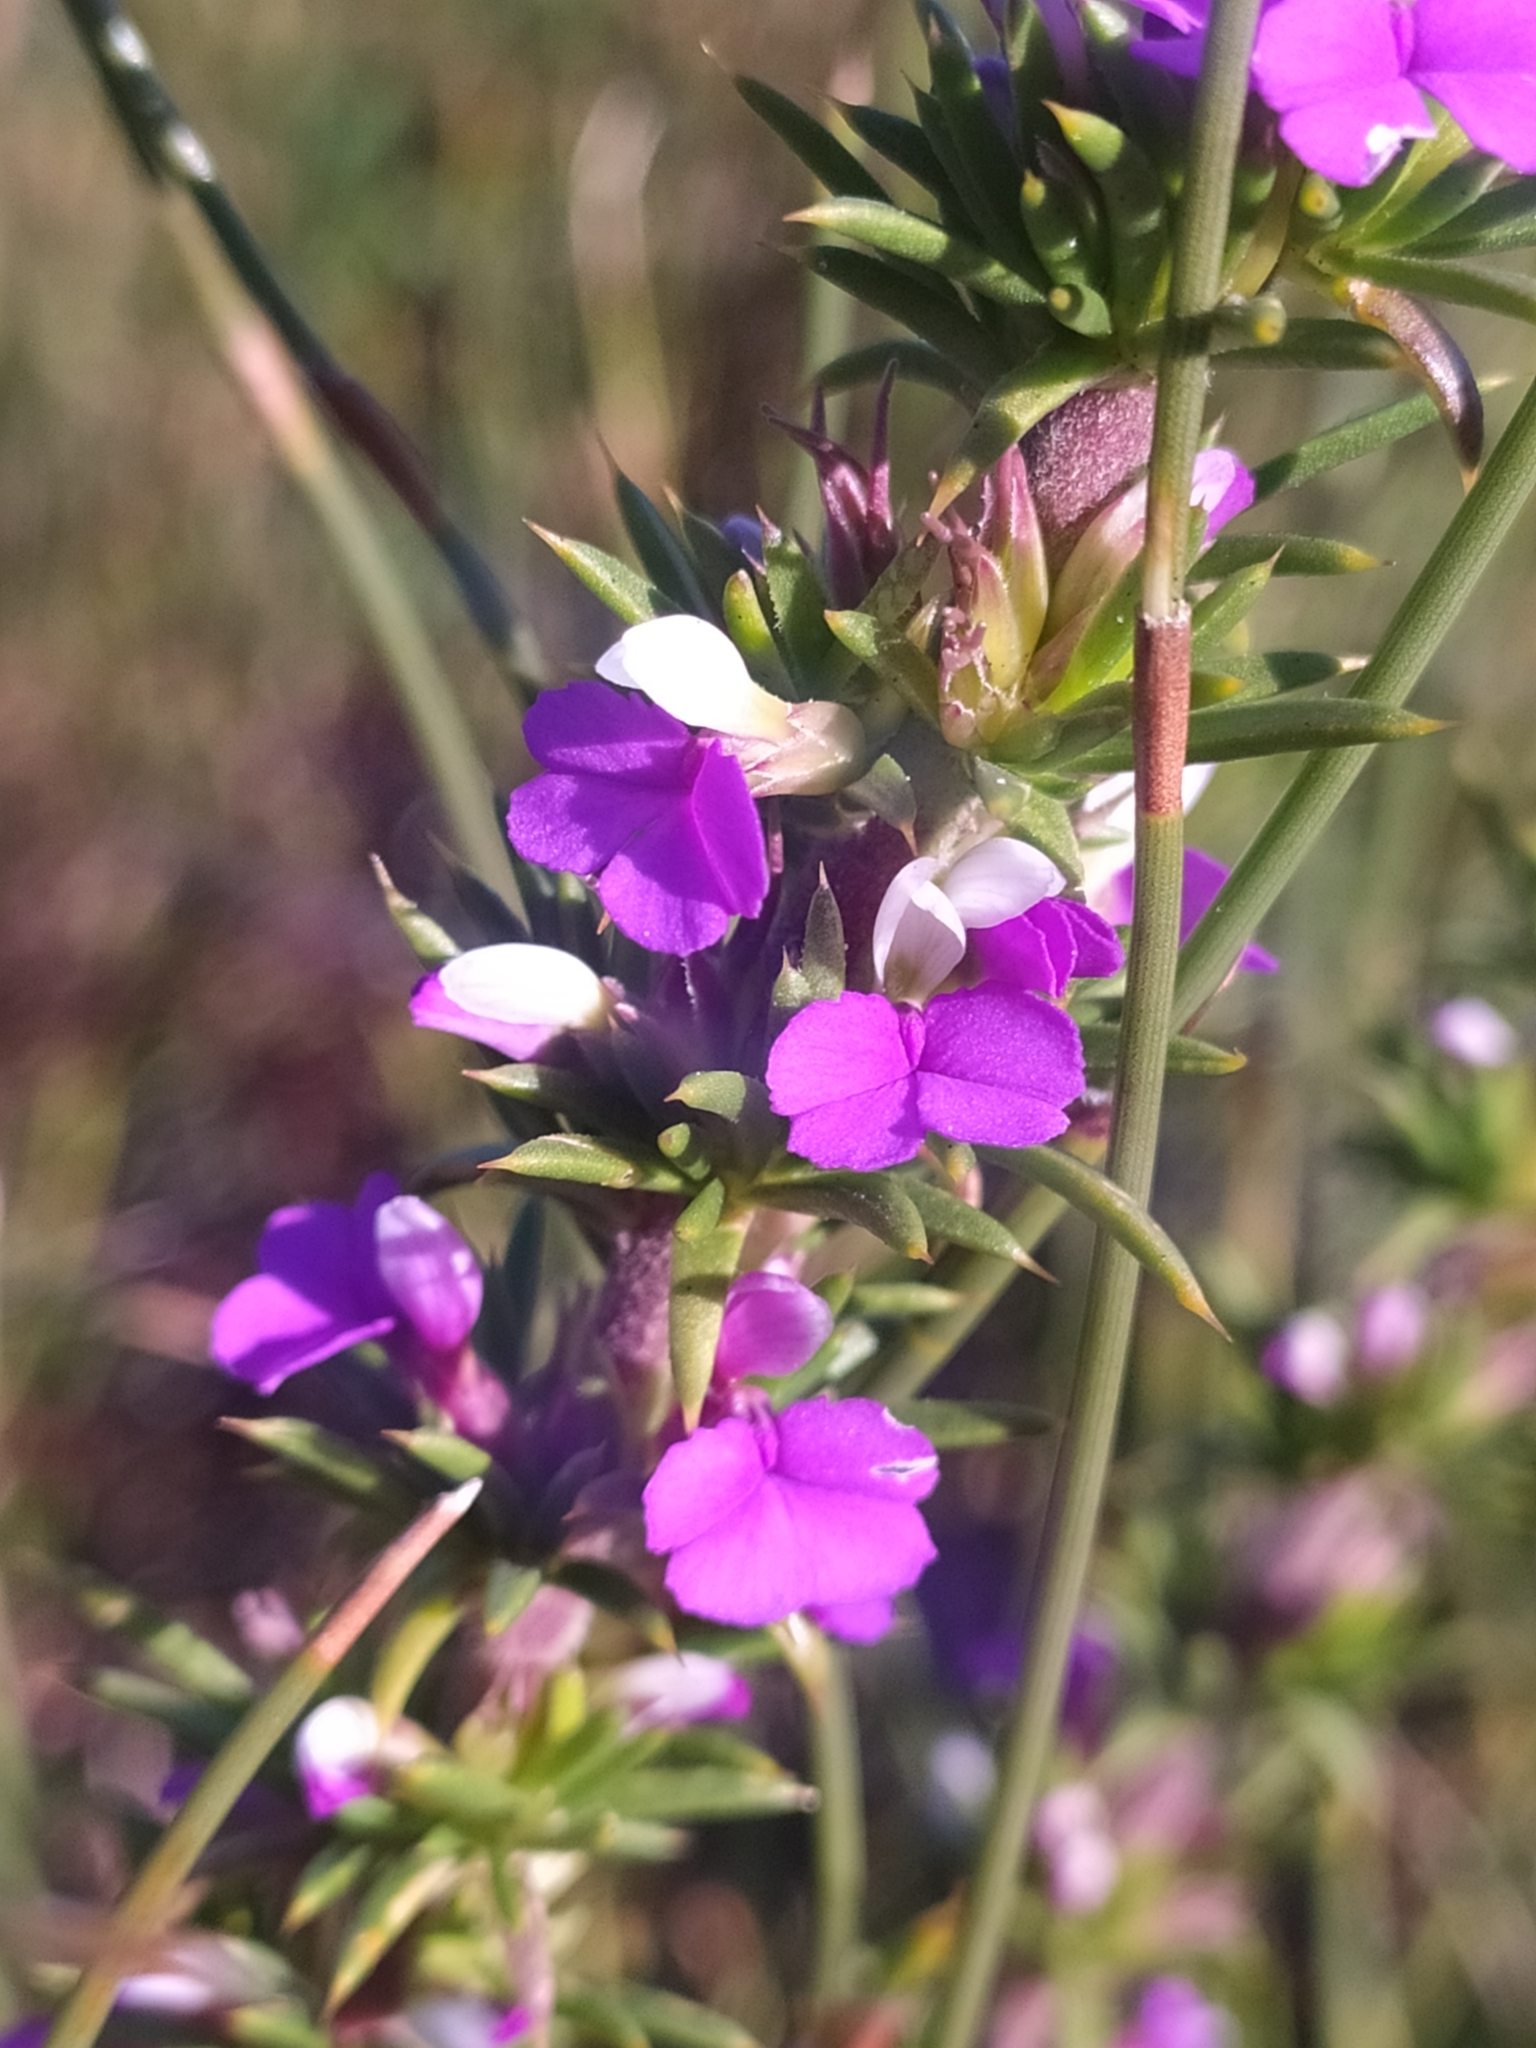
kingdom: Plantae
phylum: Tracheophyta
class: Magnoliopsida
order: Fabales
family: Polygalaceae
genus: Muraltia
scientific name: Muraltia heisteria
